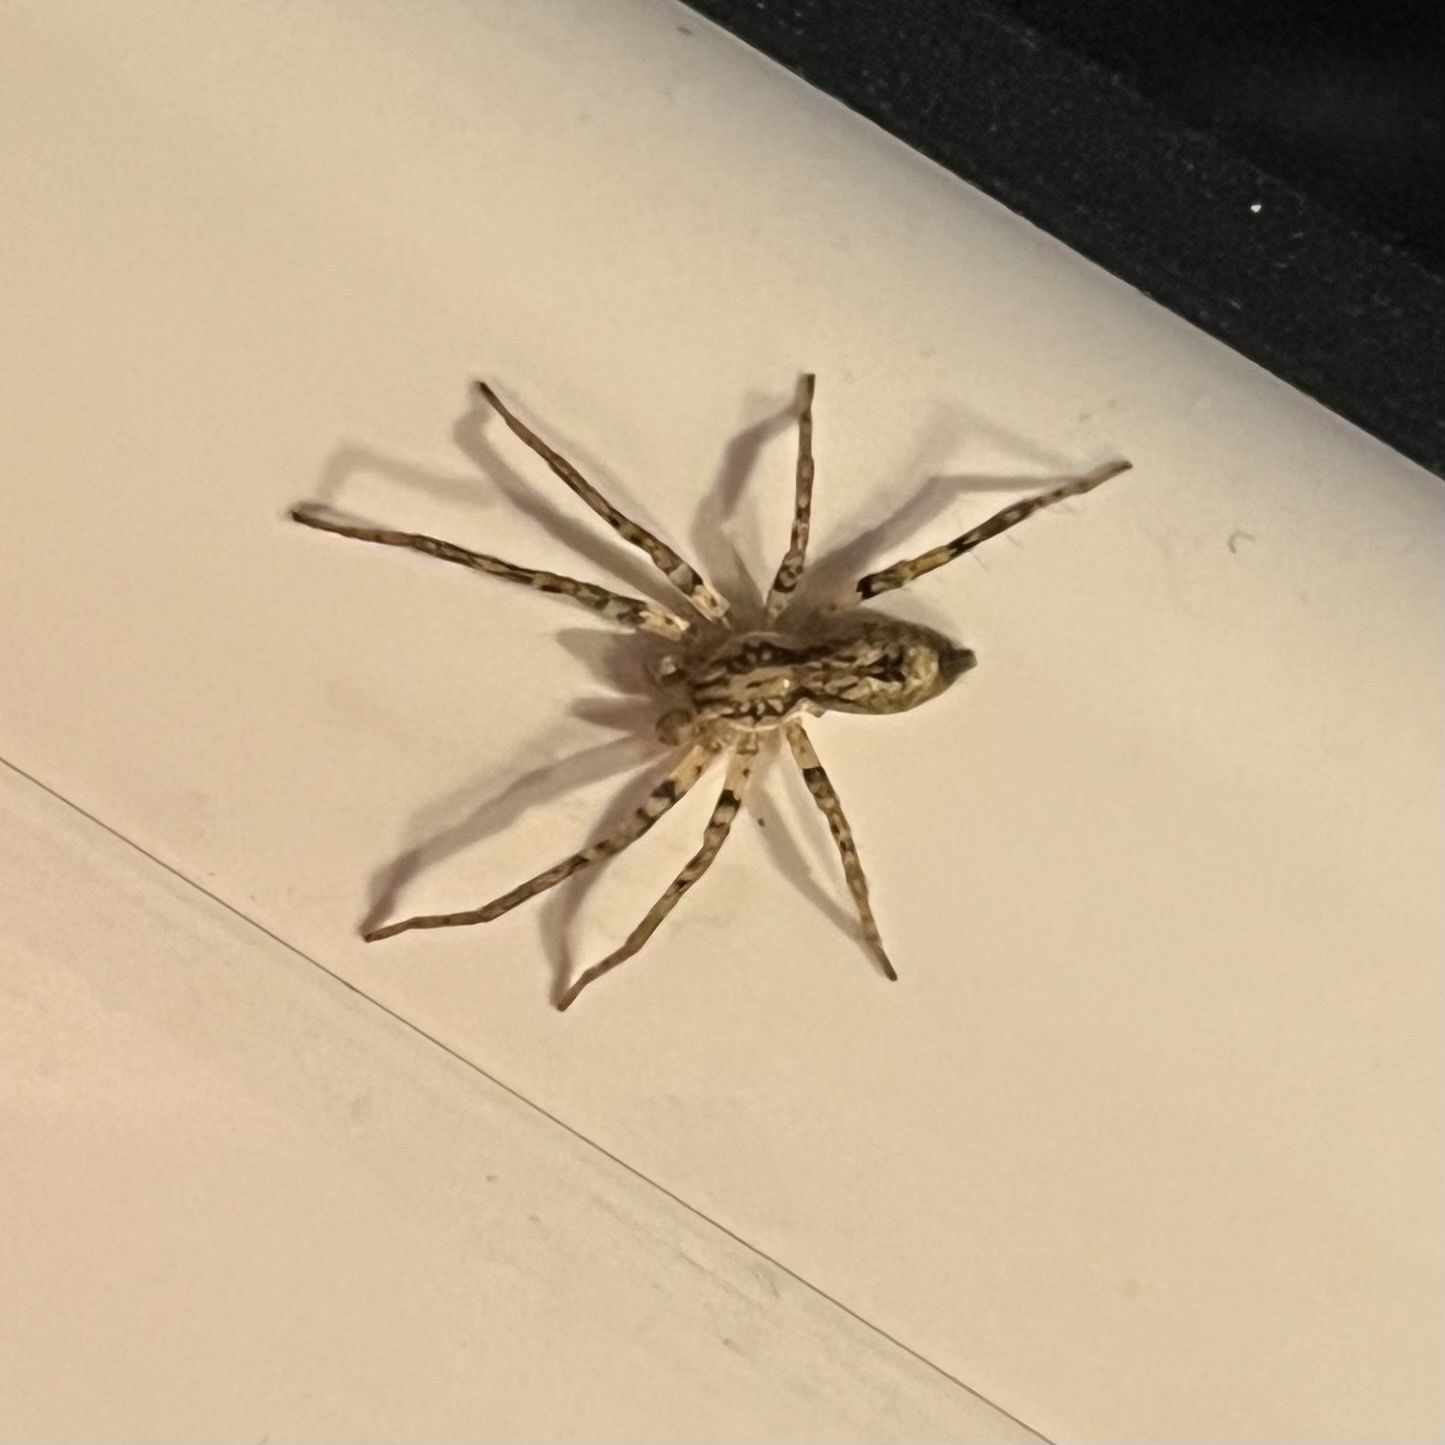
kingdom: Animalia
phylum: Arthropoda
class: Arachnida
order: Araneae
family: Anyphaenidae
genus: Anyphaena
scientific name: Anyphaena accentuata
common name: Buzzing spider
